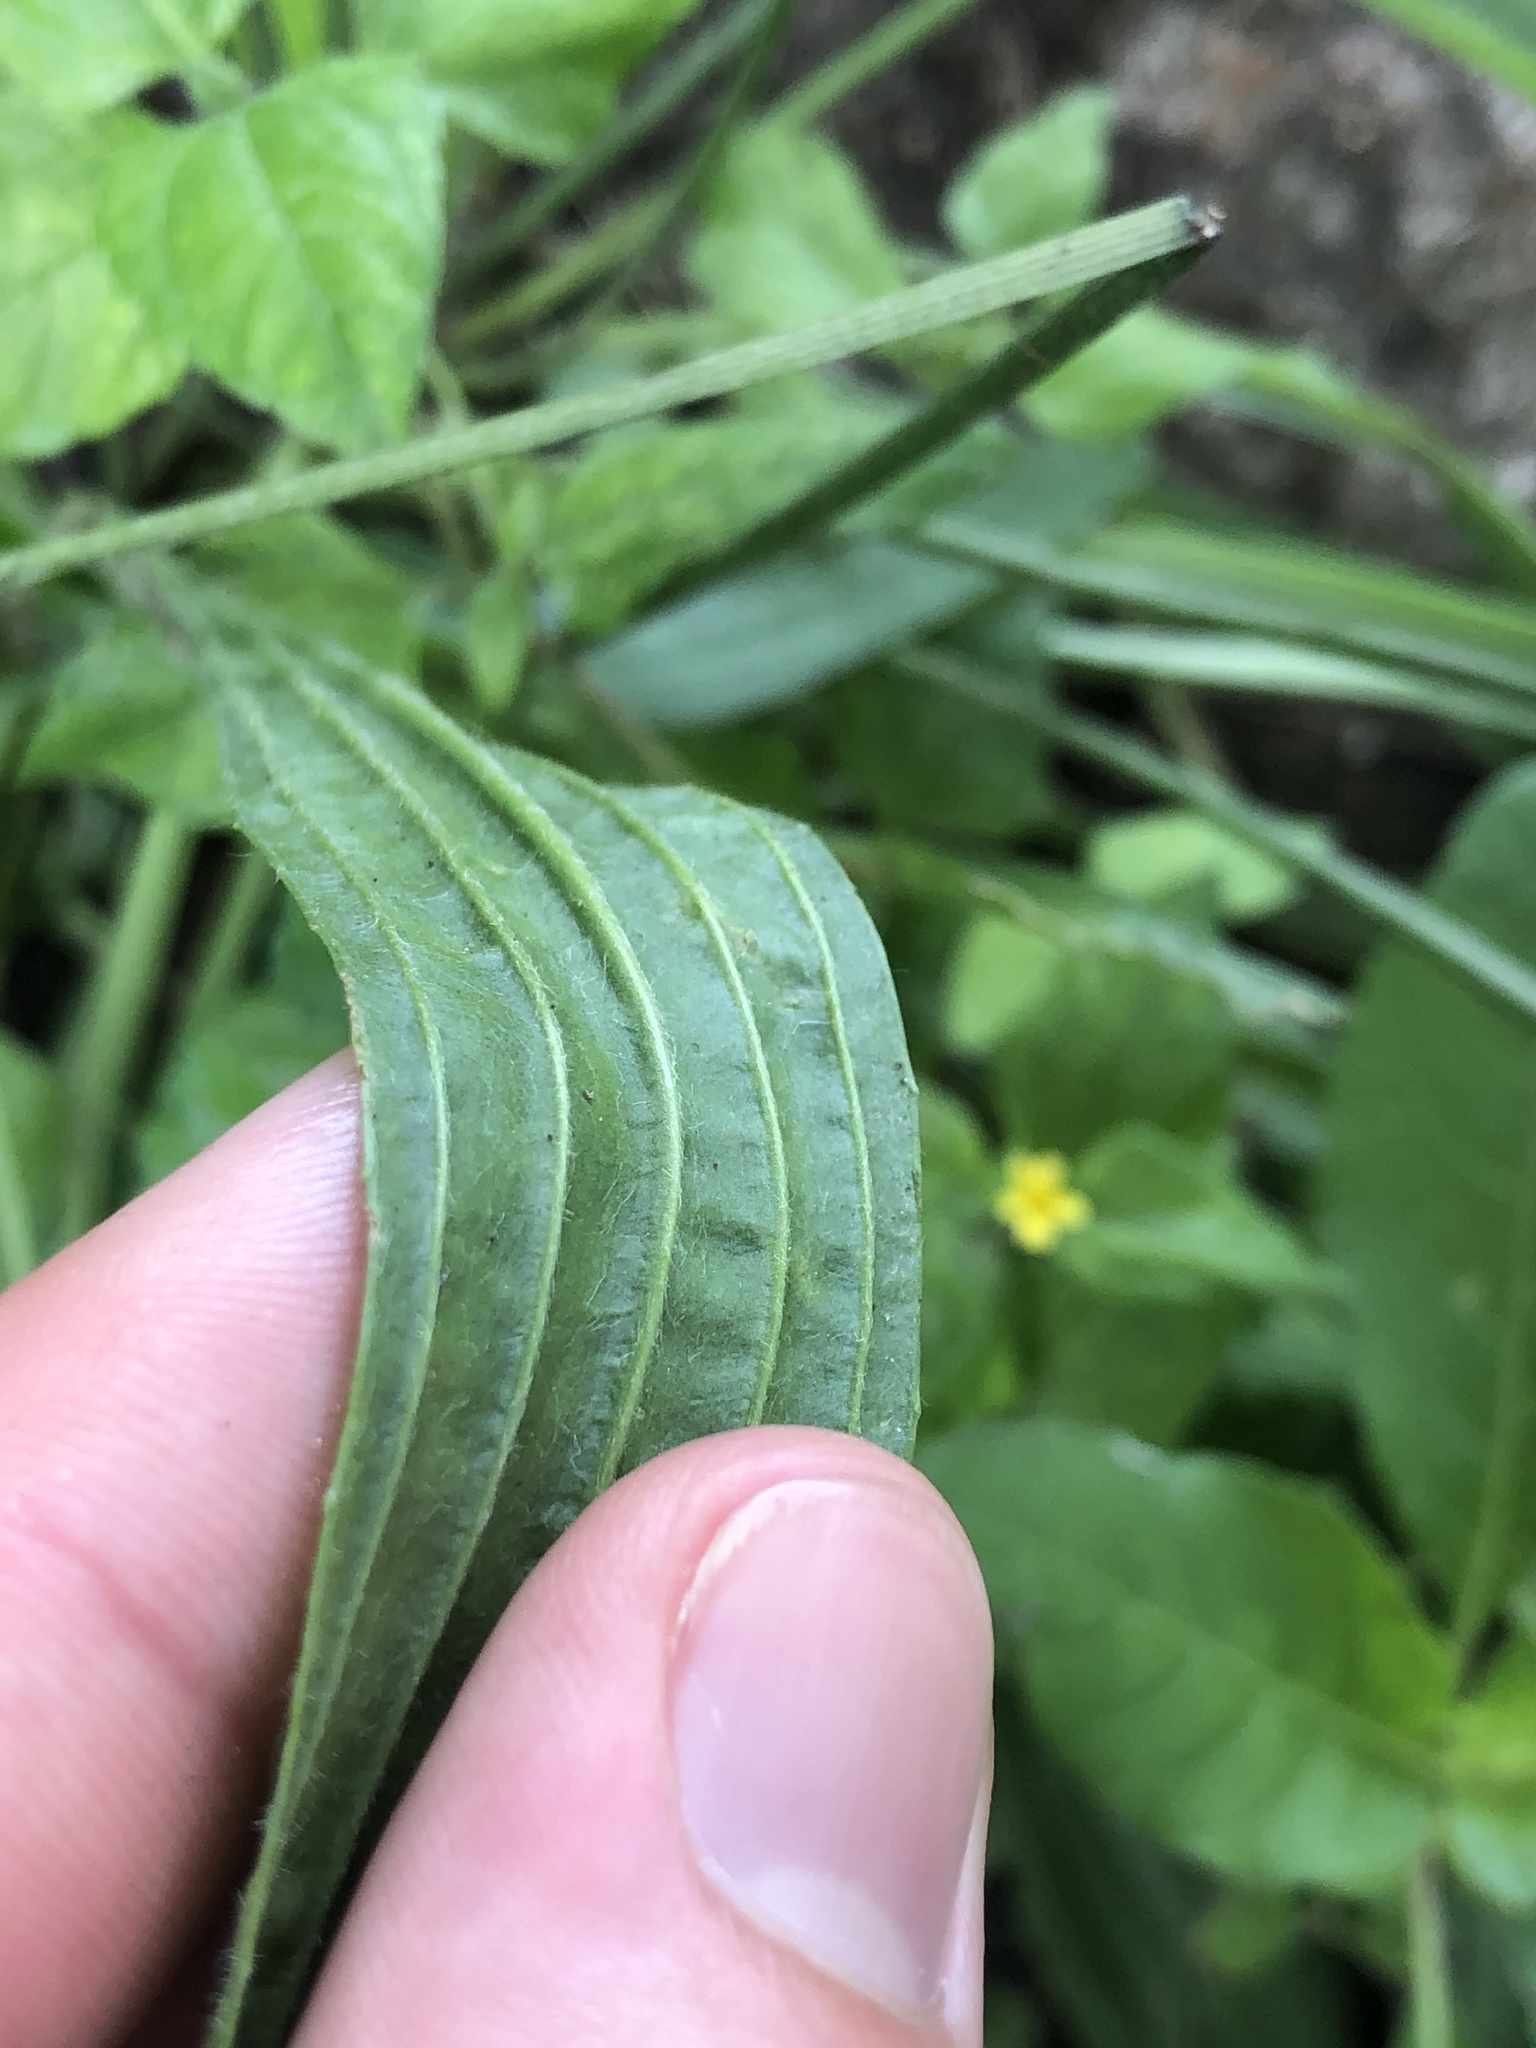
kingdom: Plantae
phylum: Tracheophyta
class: Magnoliopsida
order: Lamiales
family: Plantaginaceae
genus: Plantago
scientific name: Plantago lanceolata
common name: Ribwort plantain
